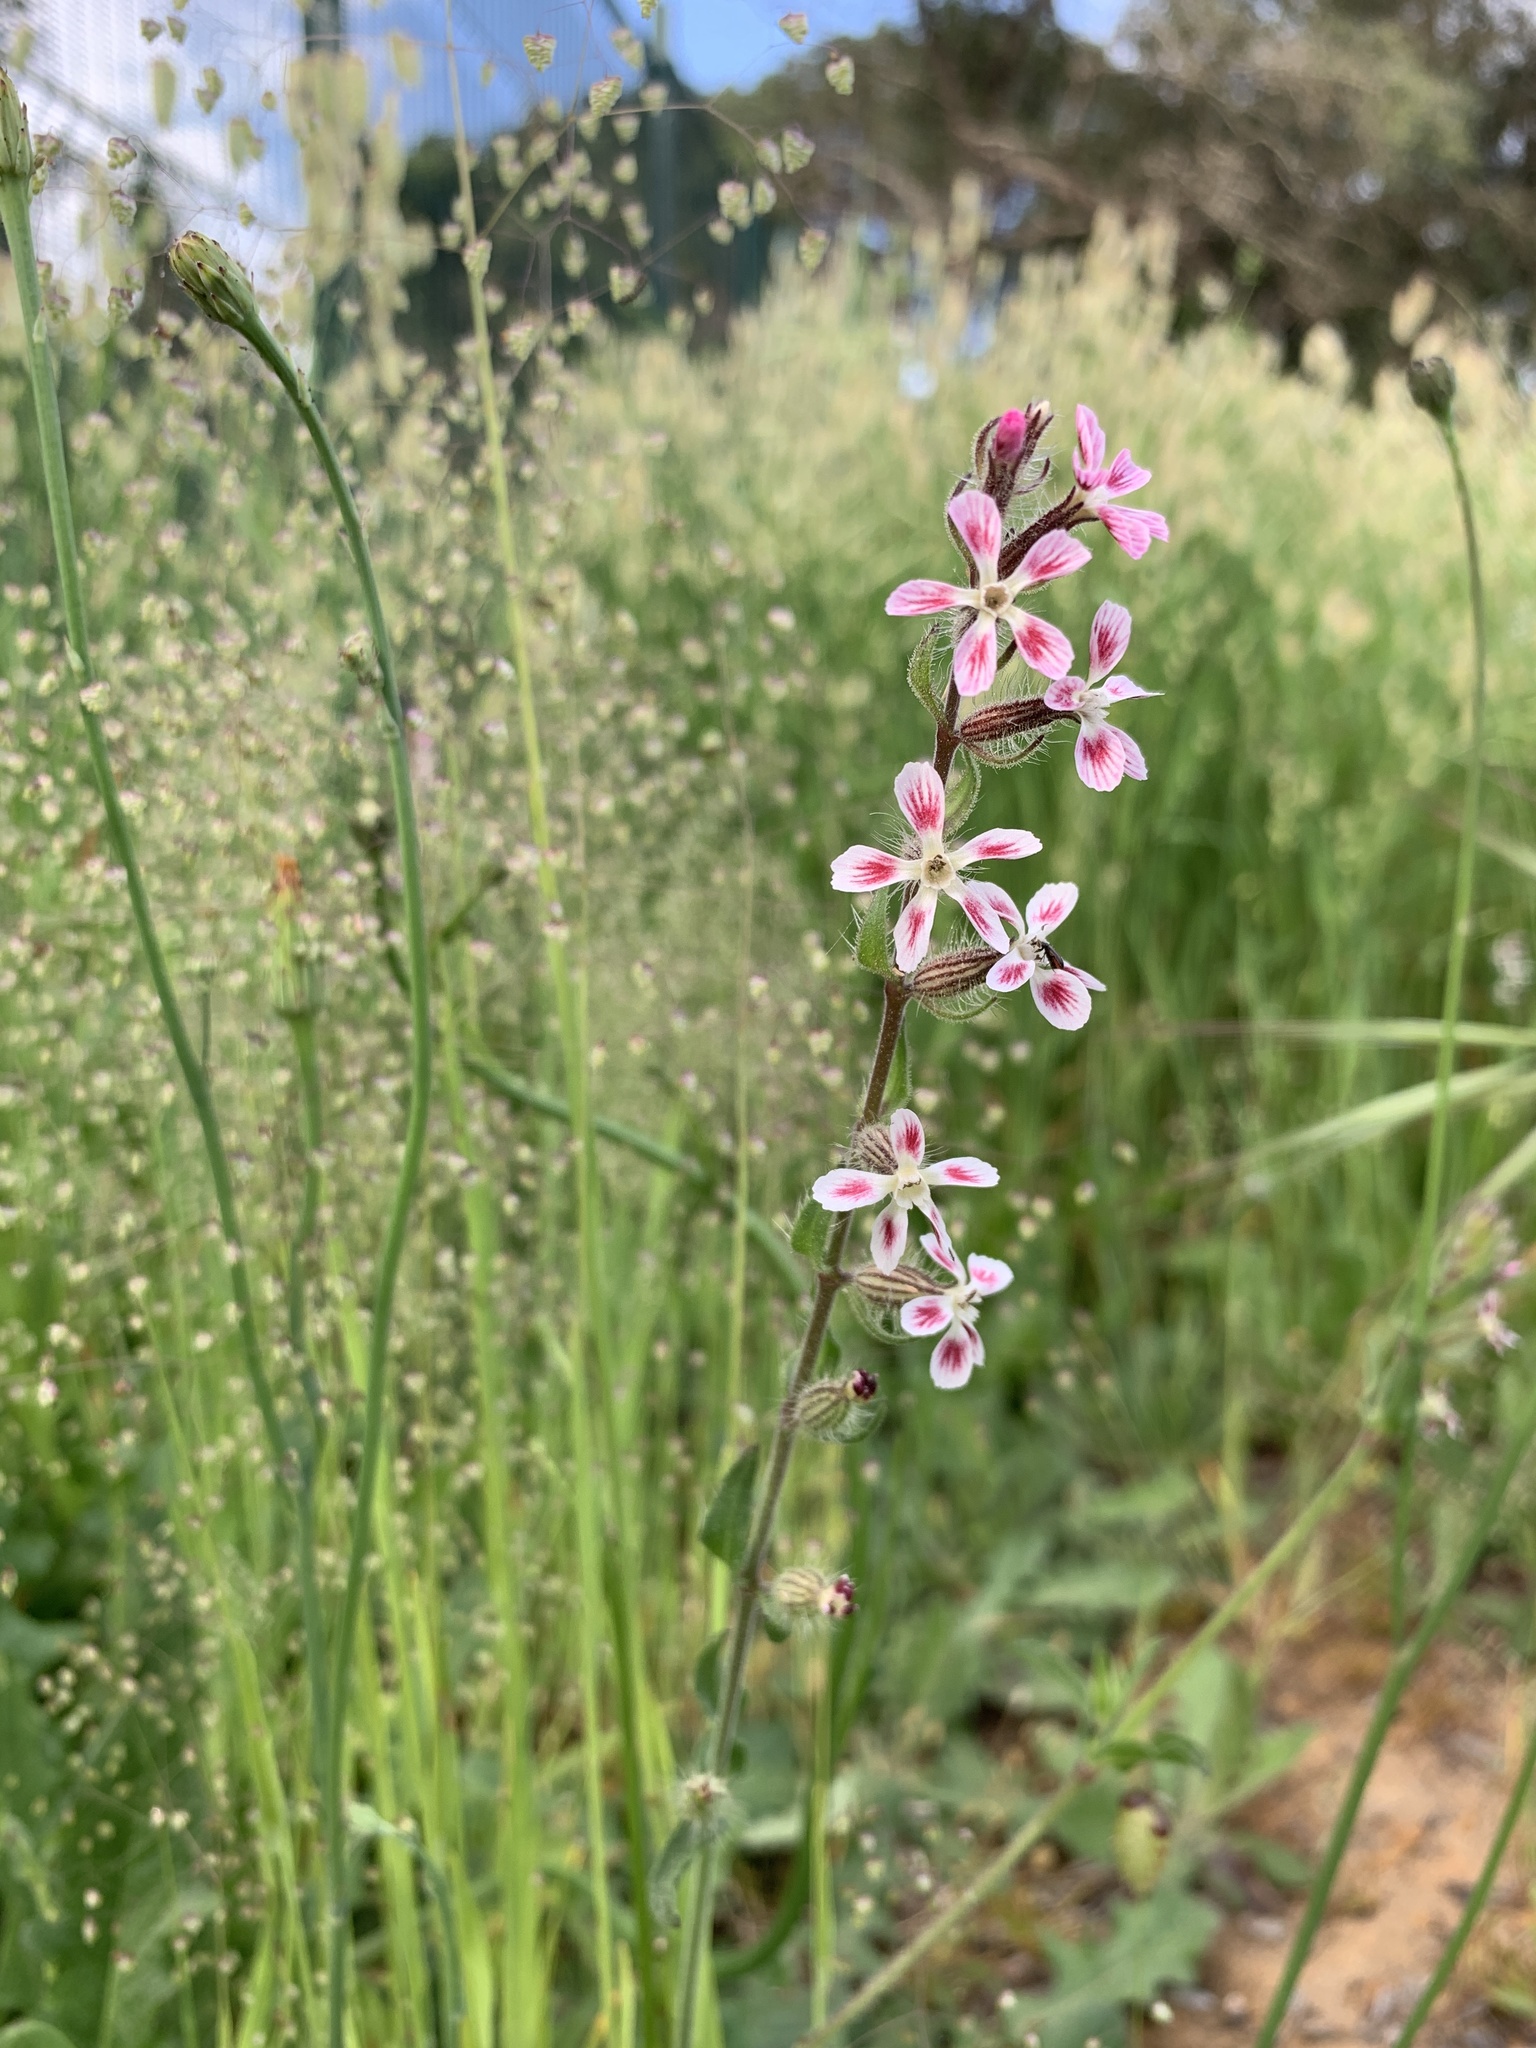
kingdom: Plantae
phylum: Tracheophyta
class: Magnoliopsida
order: Caryophyllales
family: Caryophyllaceae
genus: Silene
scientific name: Silene gallica
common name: Small-flowered catchfly
